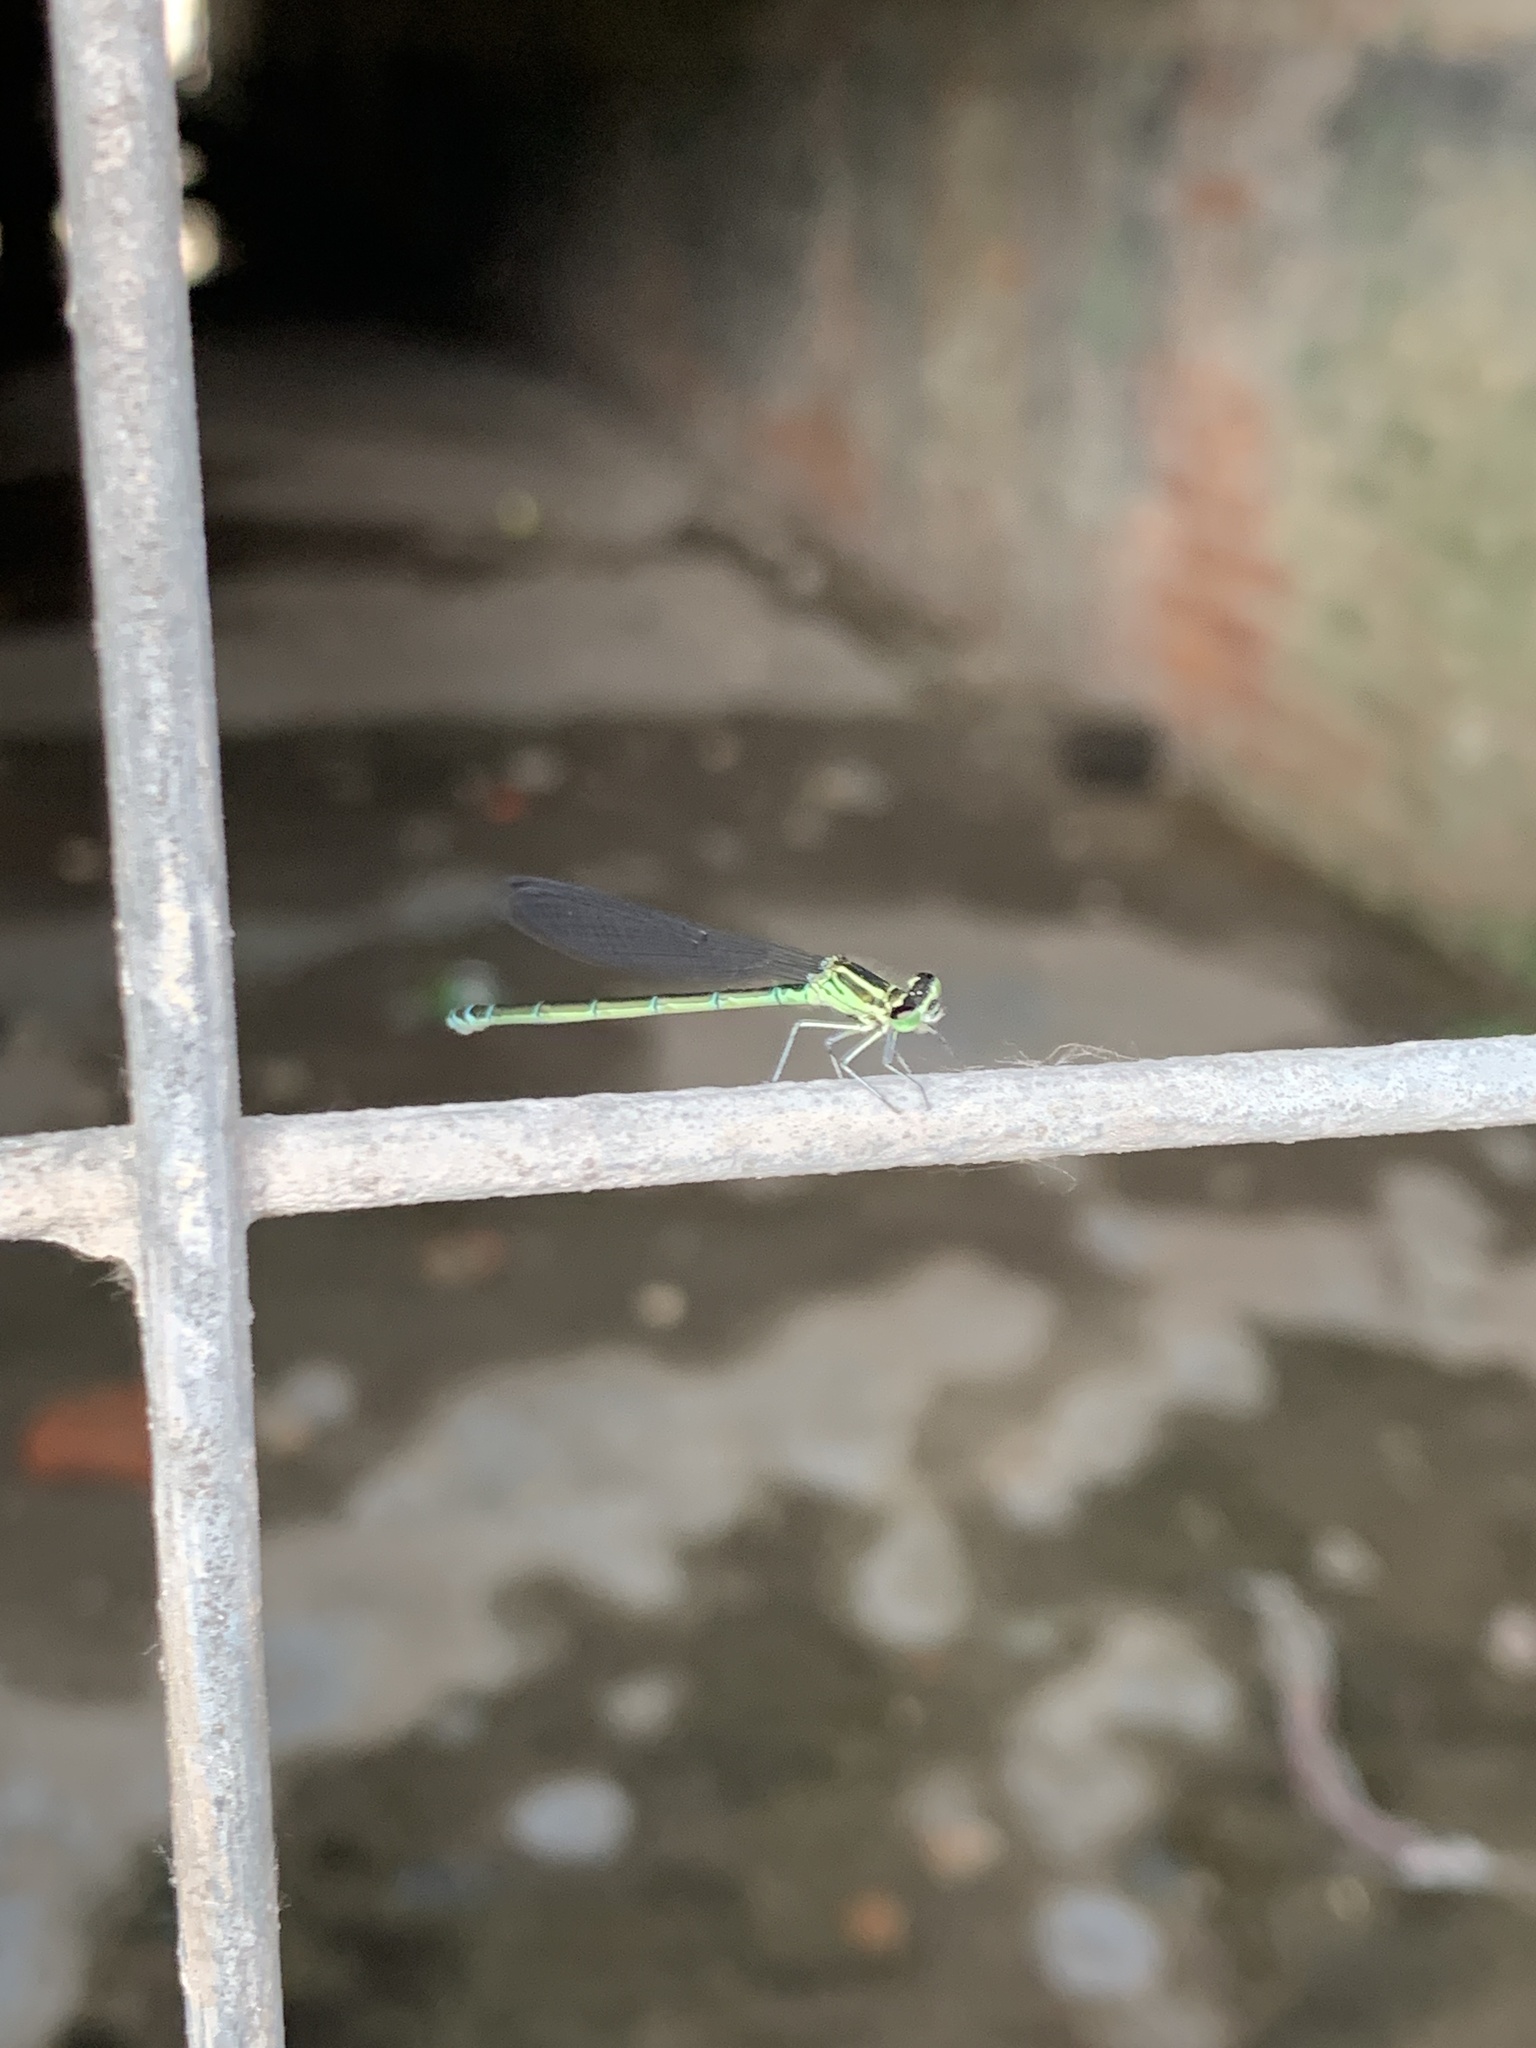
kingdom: Animalia
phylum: Arthropoda
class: Insecta
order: Odonata
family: Coenagrionidae
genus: Coenagrion
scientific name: Coenagrion puella
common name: Azure damselfly
